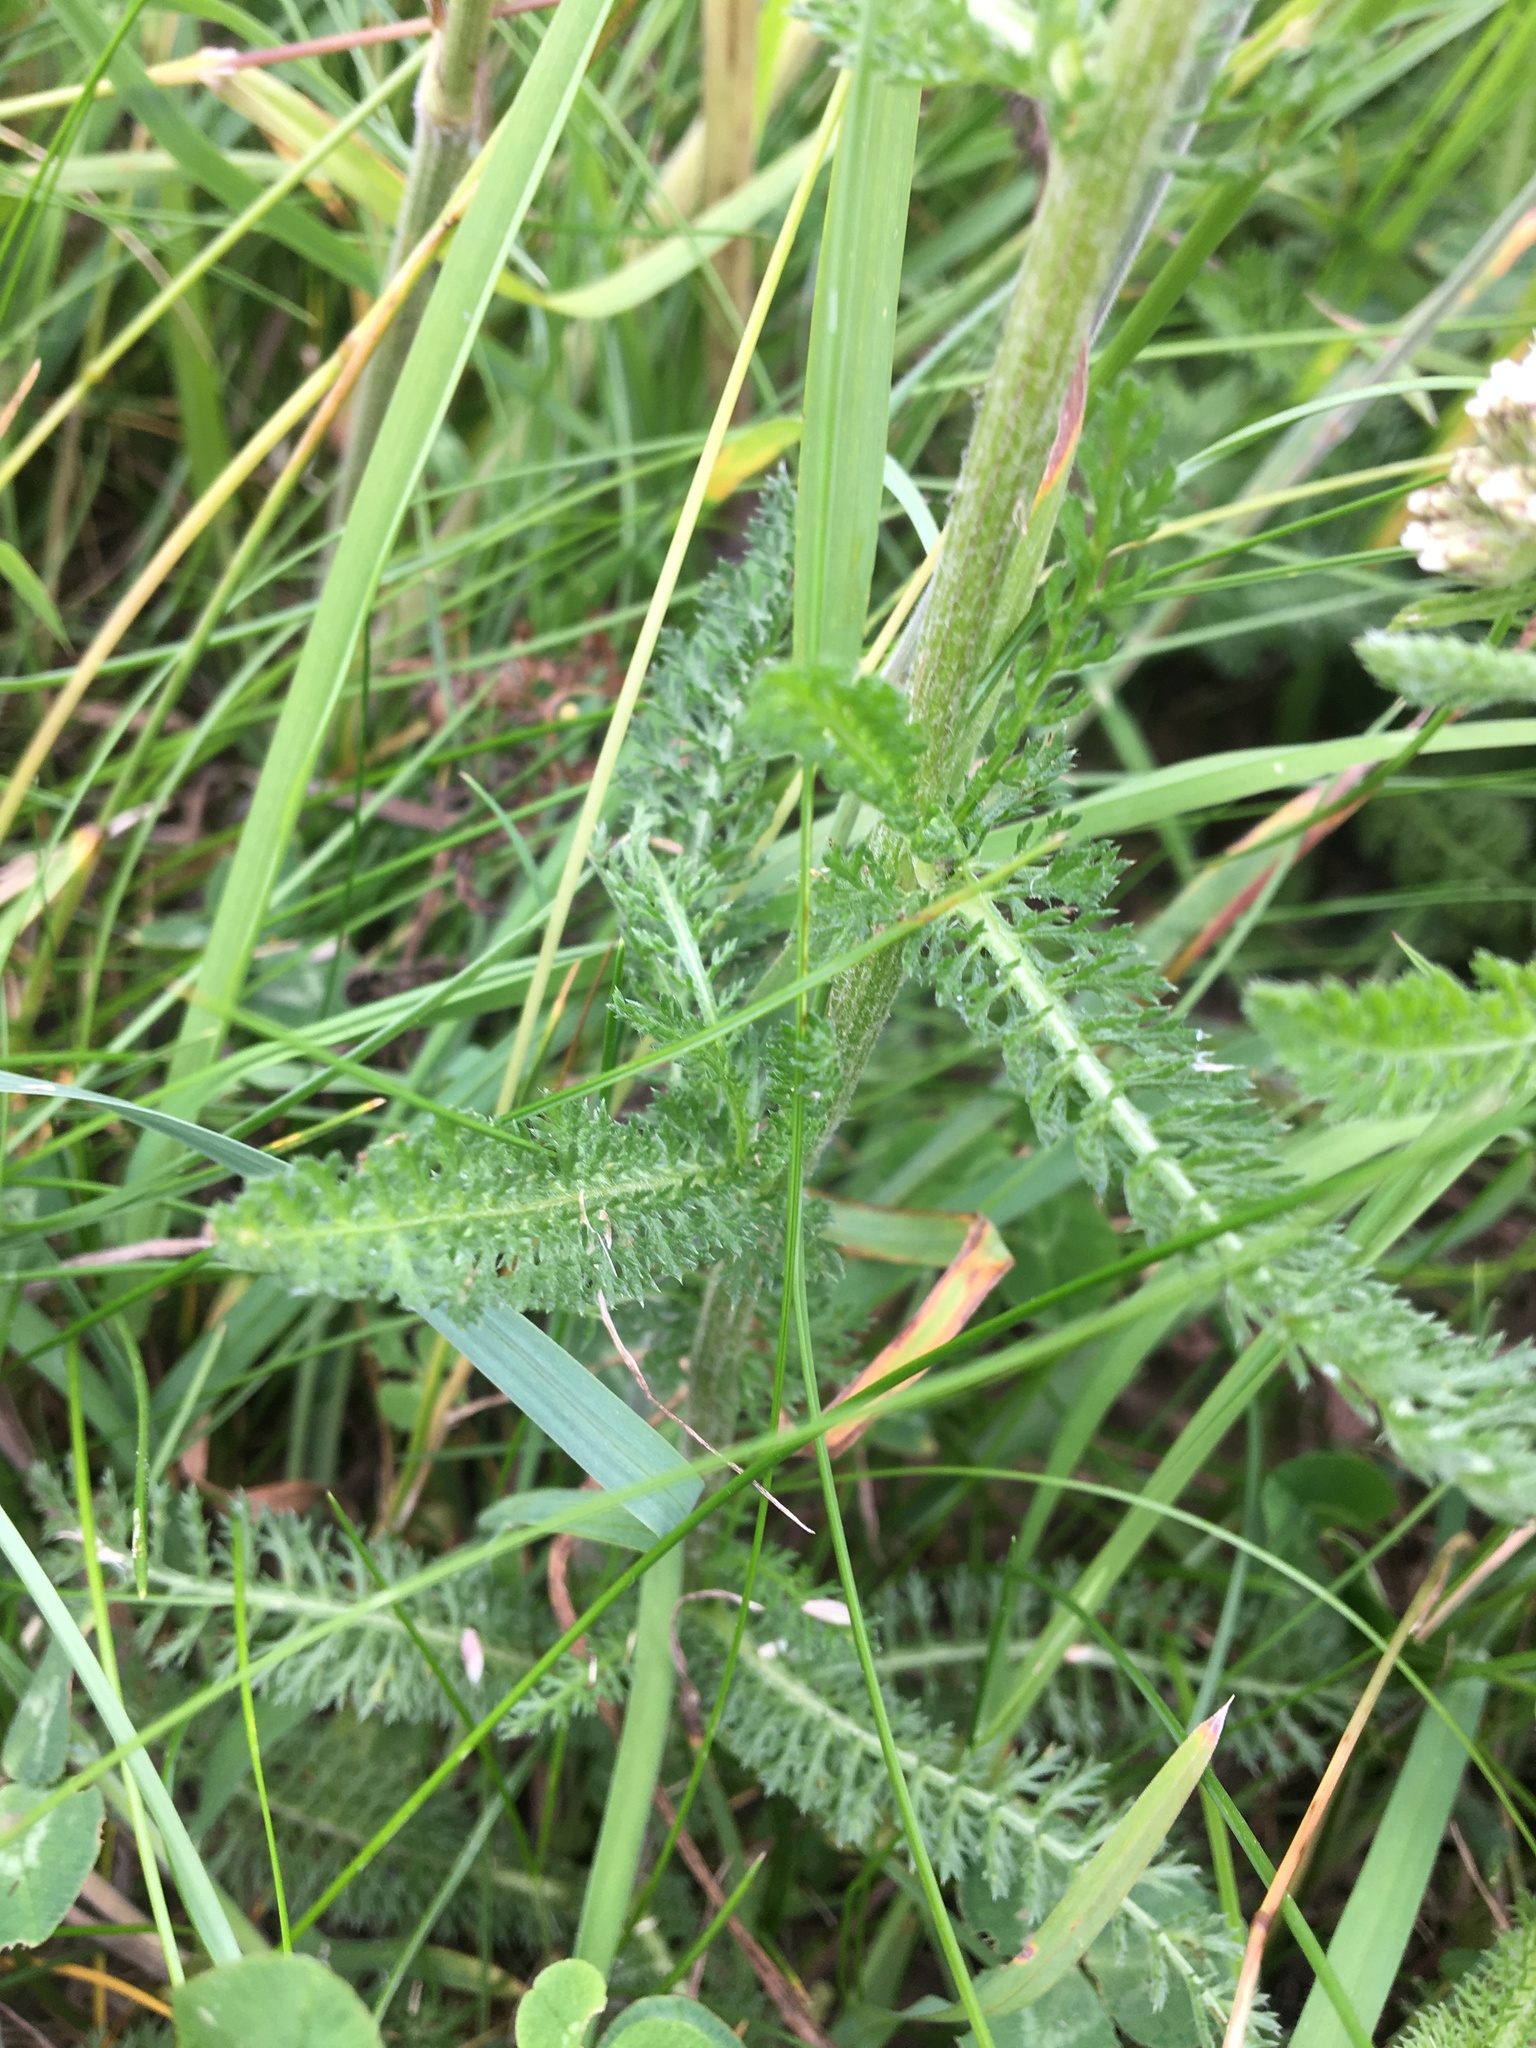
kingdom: Plantae
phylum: Tracheophyta
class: Magnoliopsida
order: Asterales
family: Asteraceae
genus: Achillea
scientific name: Achillea millefolium
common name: Yarrow
